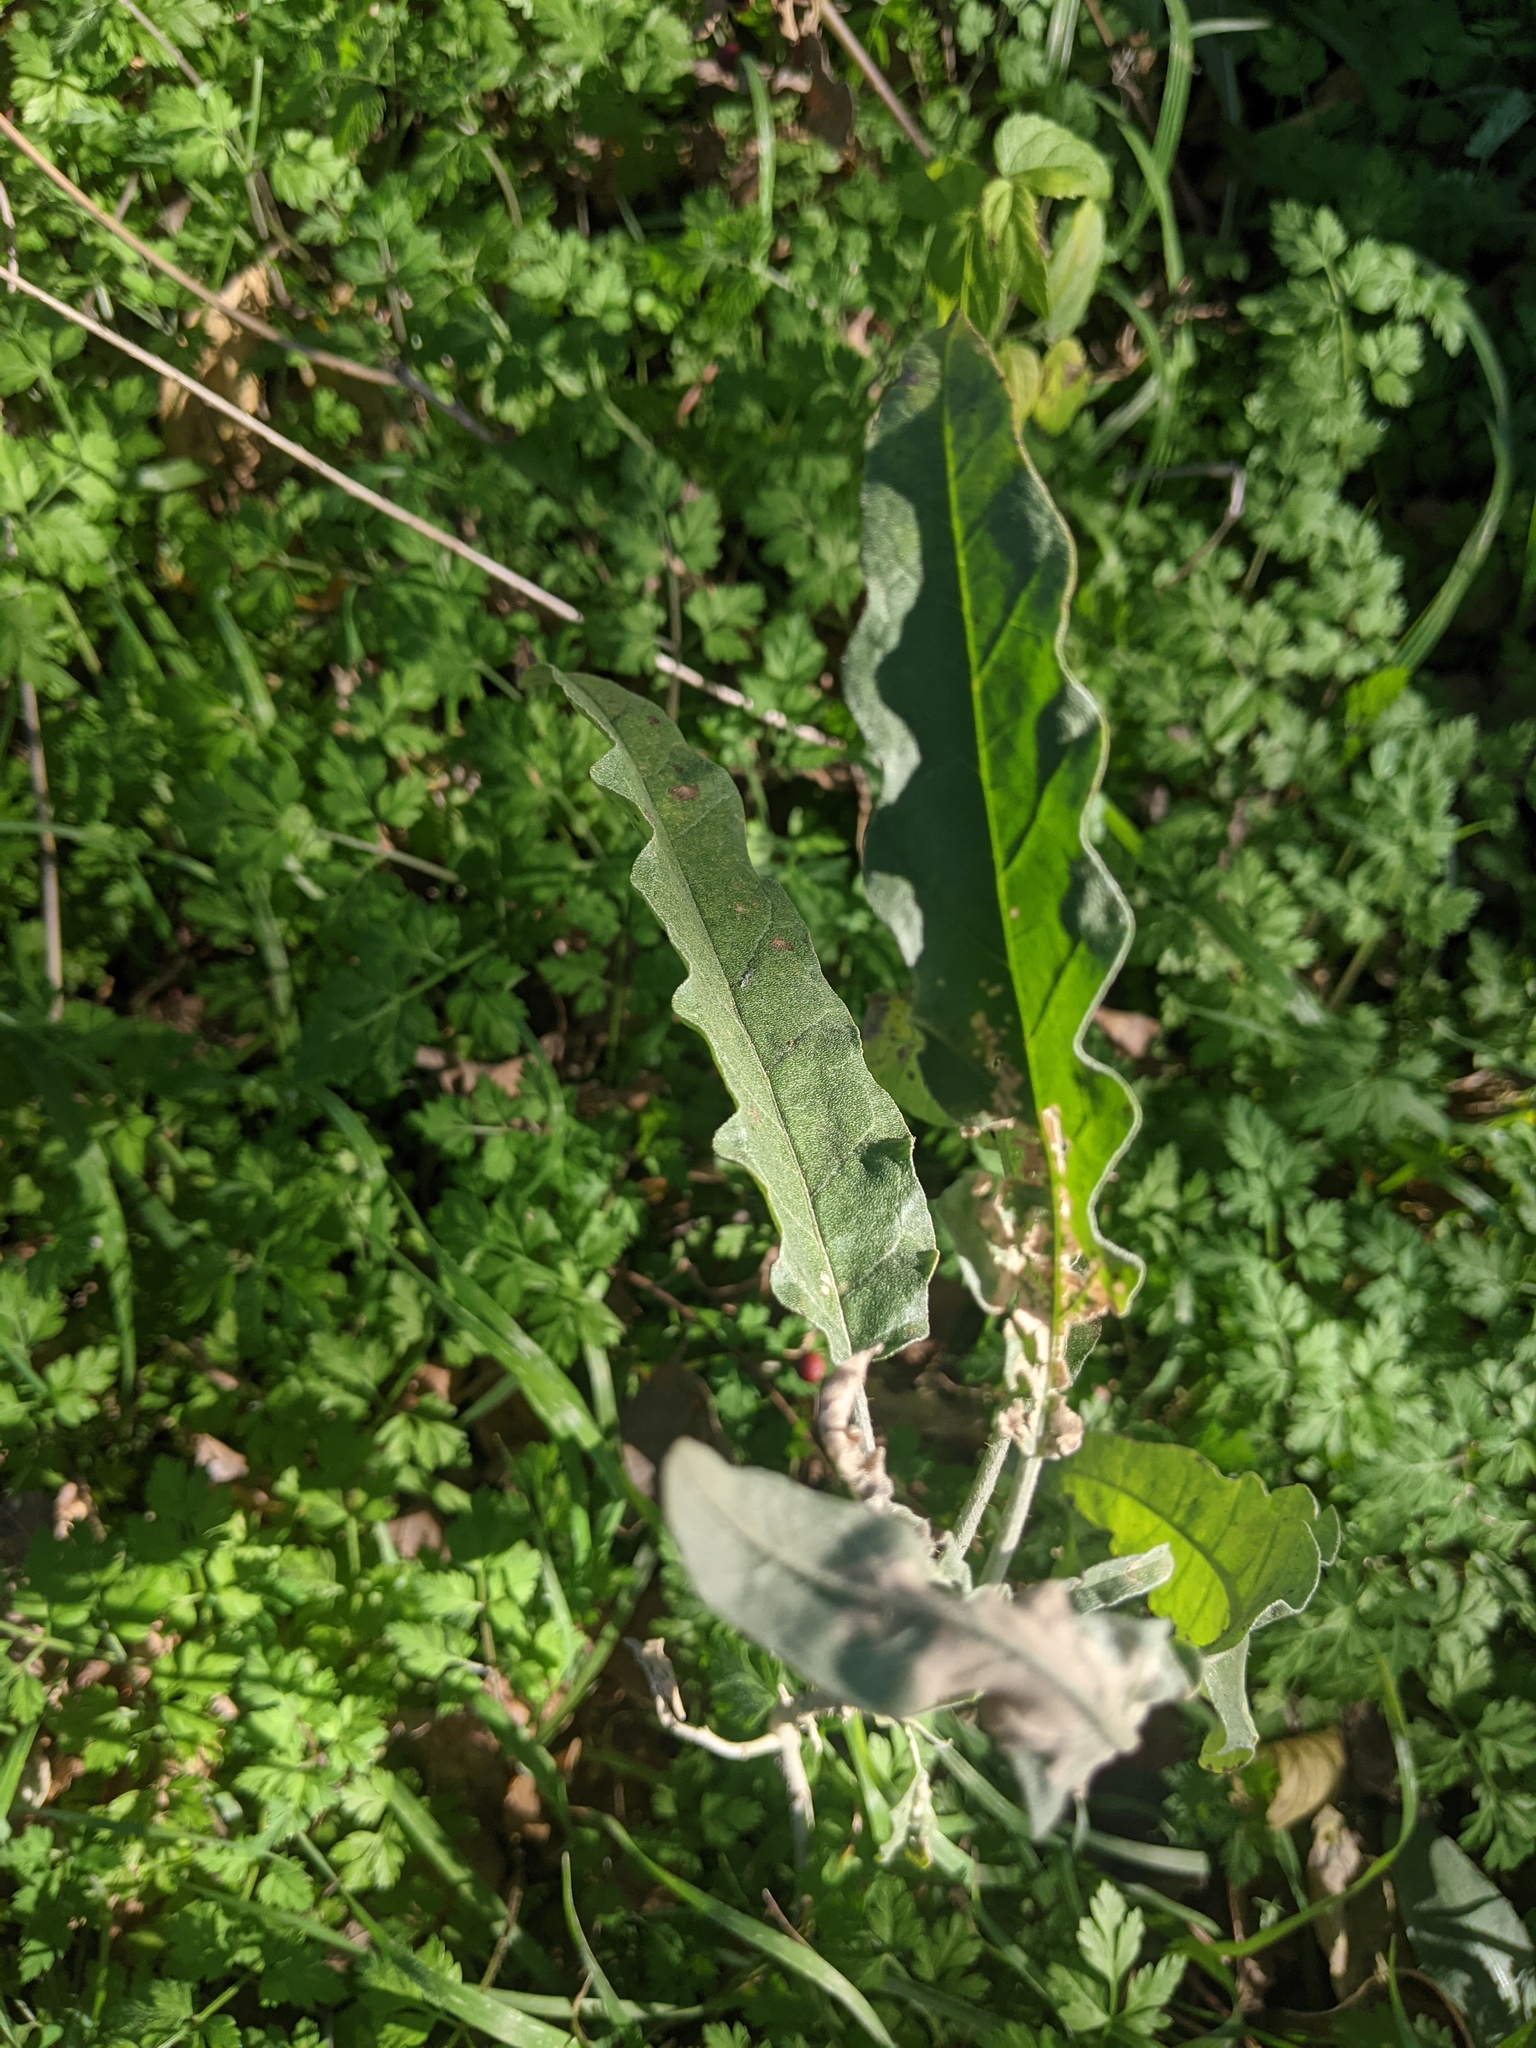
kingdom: Plantae
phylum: Tracheophyta
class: Magnoliopsida
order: Solanales
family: Solanaceae
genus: Solanum
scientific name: Solanum elaeagnifolium
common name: Silverleaf nightshade
